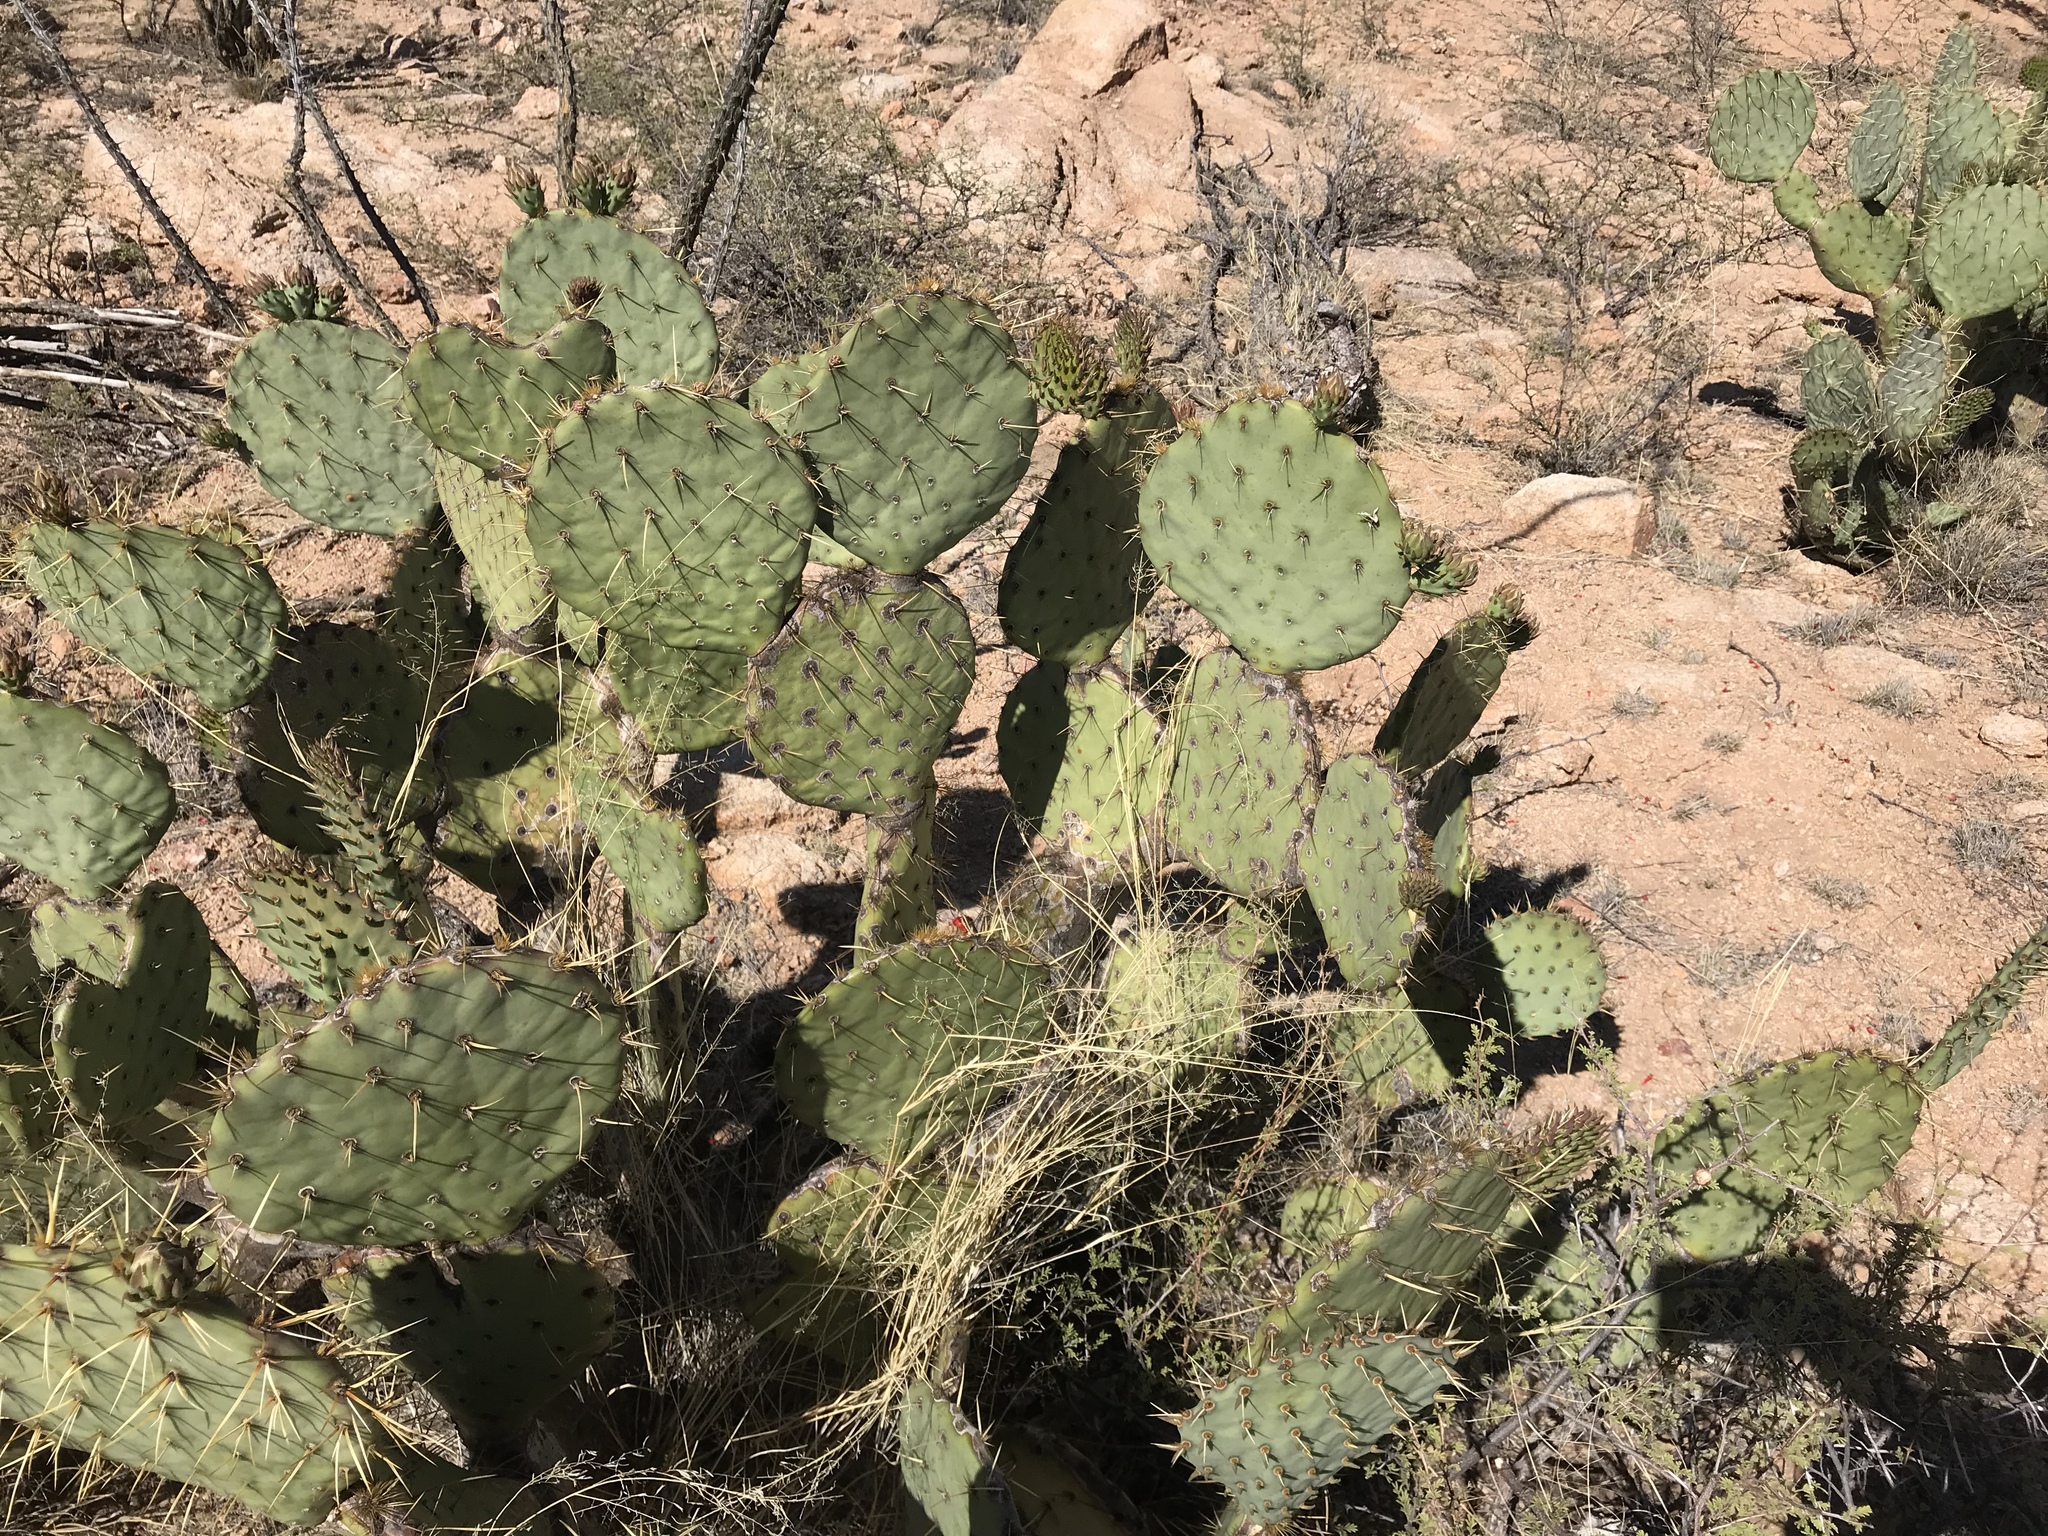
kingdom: Plantae
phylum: Tracheophyta
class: Magnoliopsida
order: Caryophyllales
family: Cactaceae
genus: Opuntia
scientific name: Opuntia engelmannii
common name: Cactus-apple
